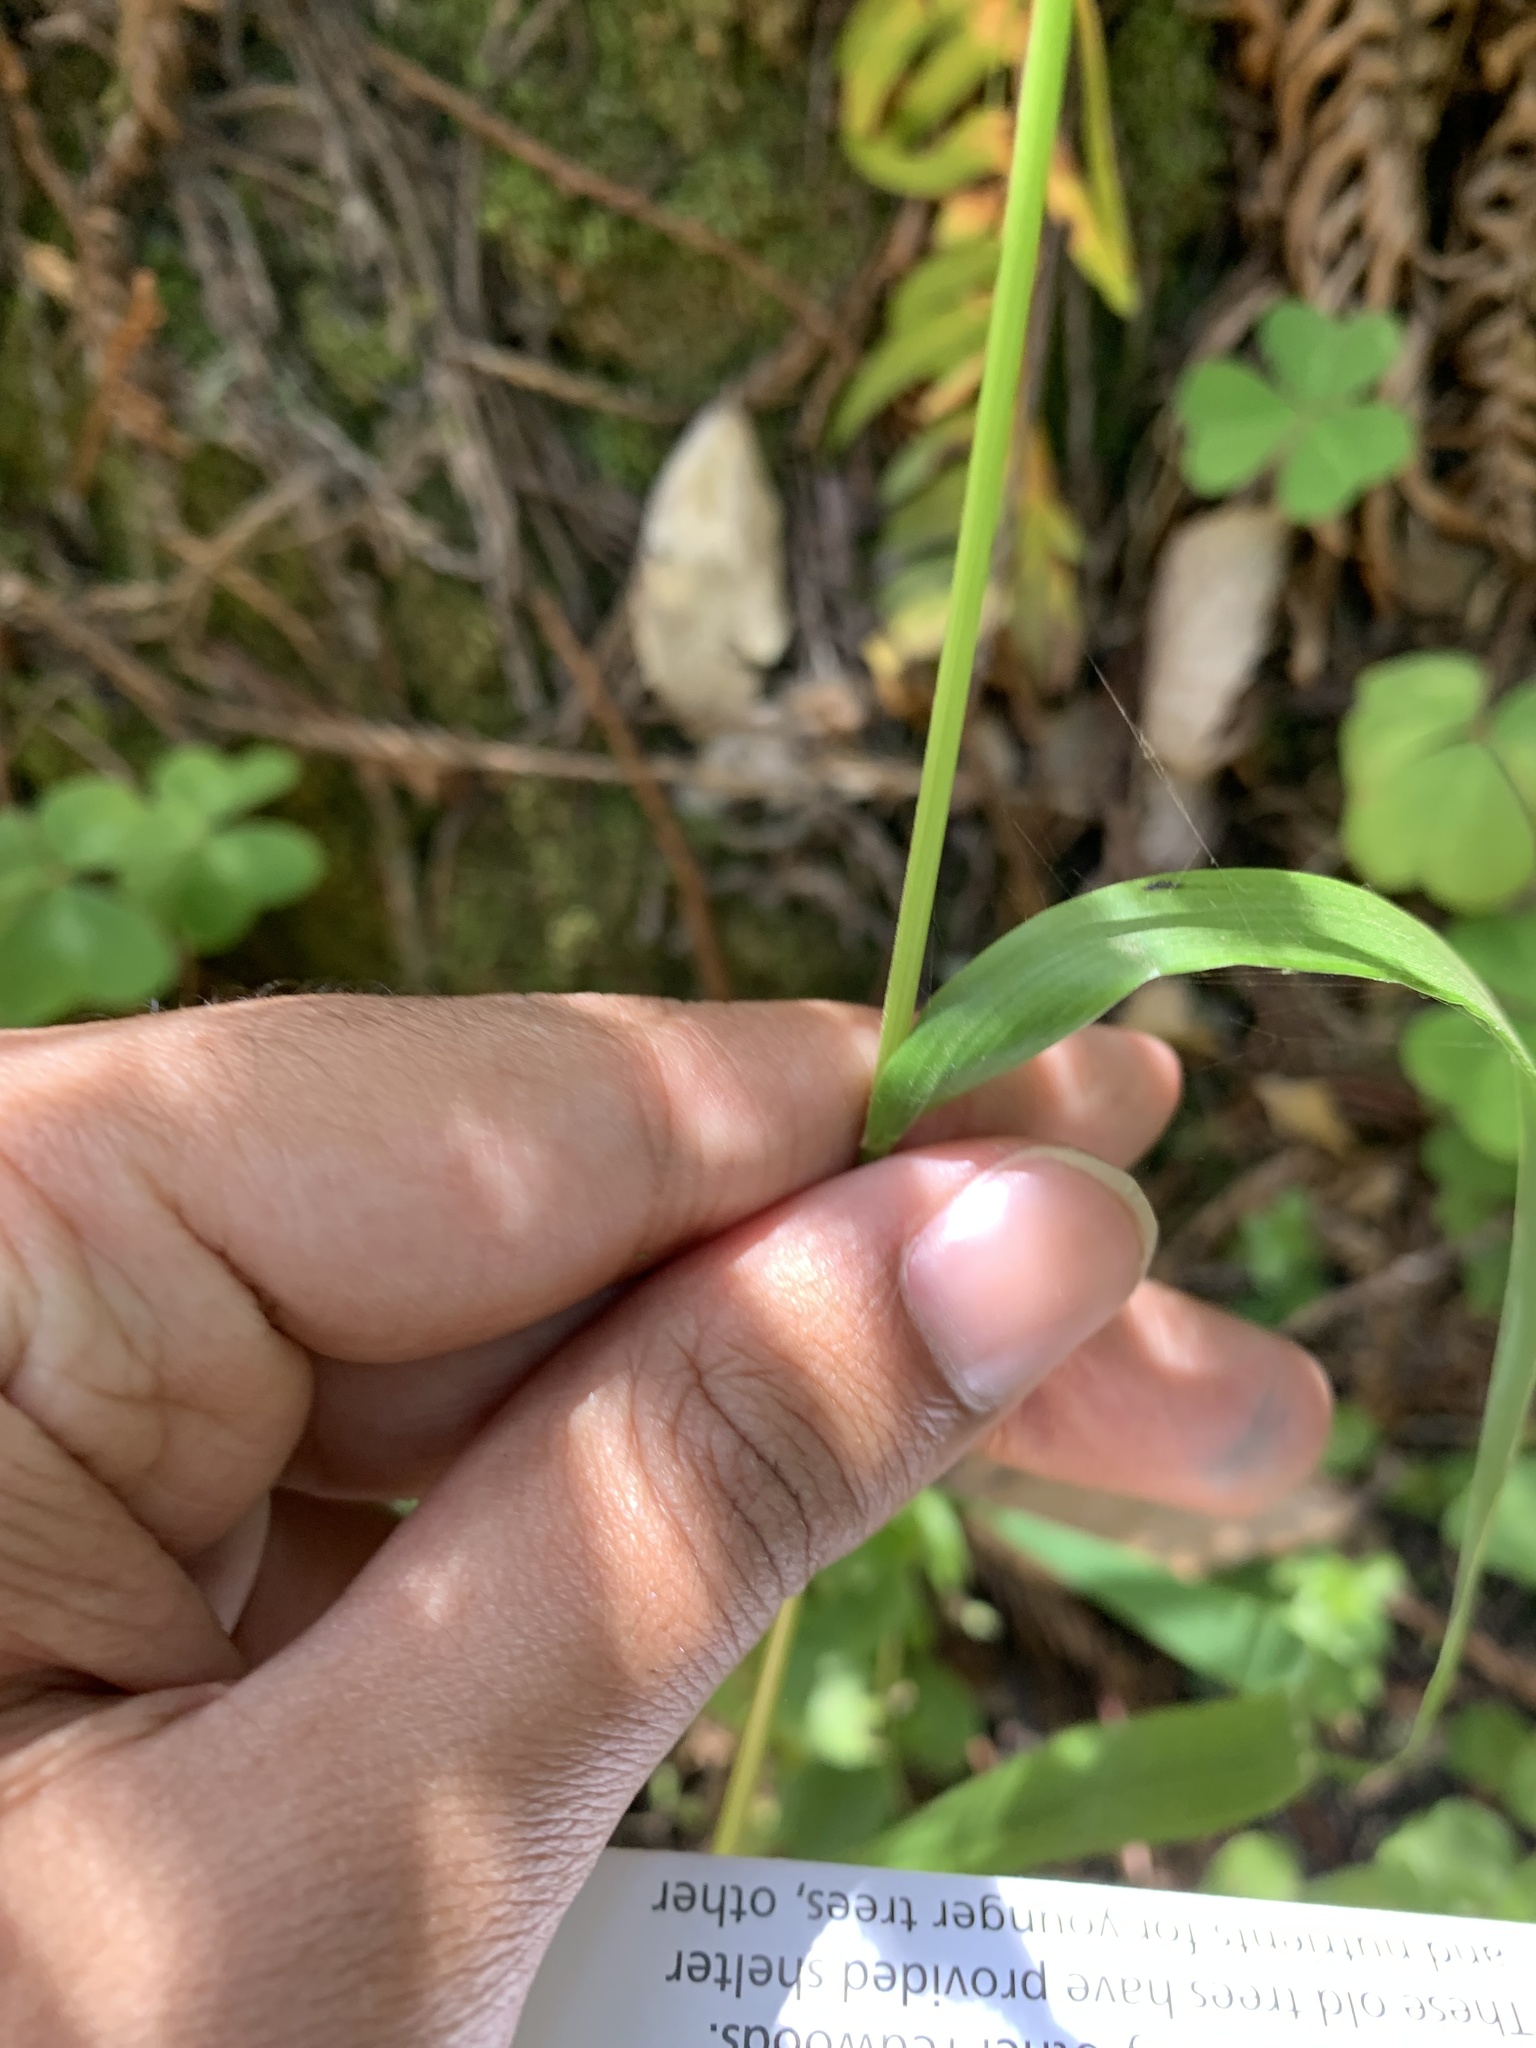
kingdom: Plantae
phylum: Tracheophyta
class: Liliopsida
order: Poales
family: Poaceae
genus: Anthoxanthum
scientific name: Anthoxanthum occidentale
